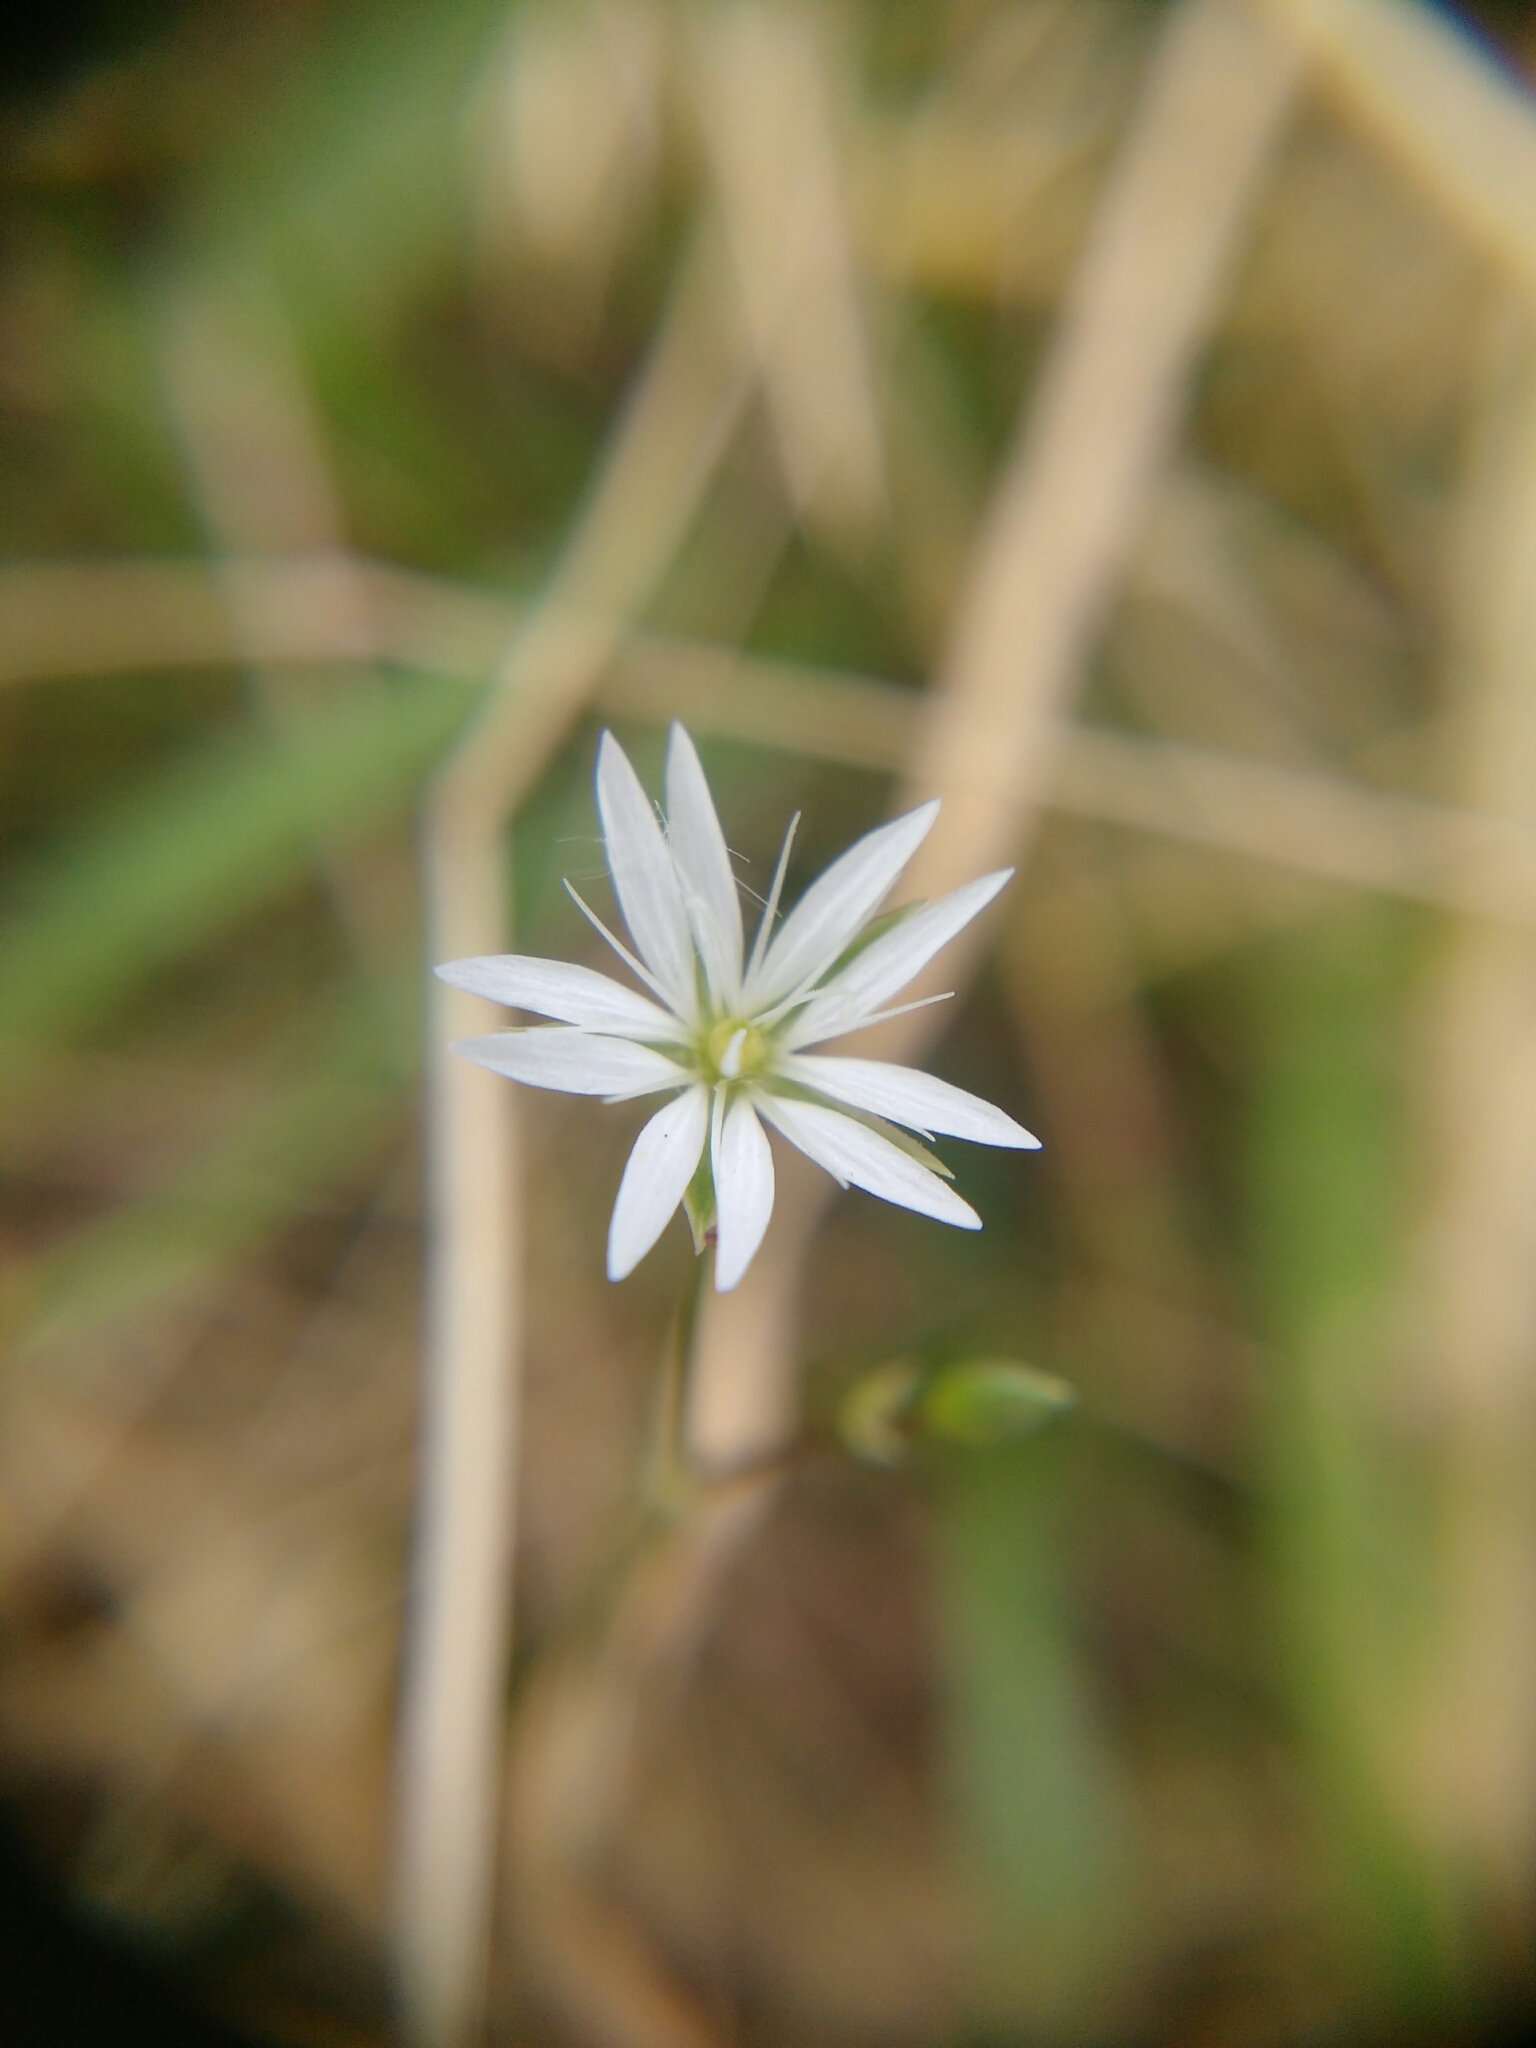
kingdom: Plantae
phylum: Tracheophyta
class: Magnoliopsida
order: Caryophyllales
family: Caryophyllaceae
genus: Stellaria
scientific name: Stellaria graminea
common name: Grass-like starwort
